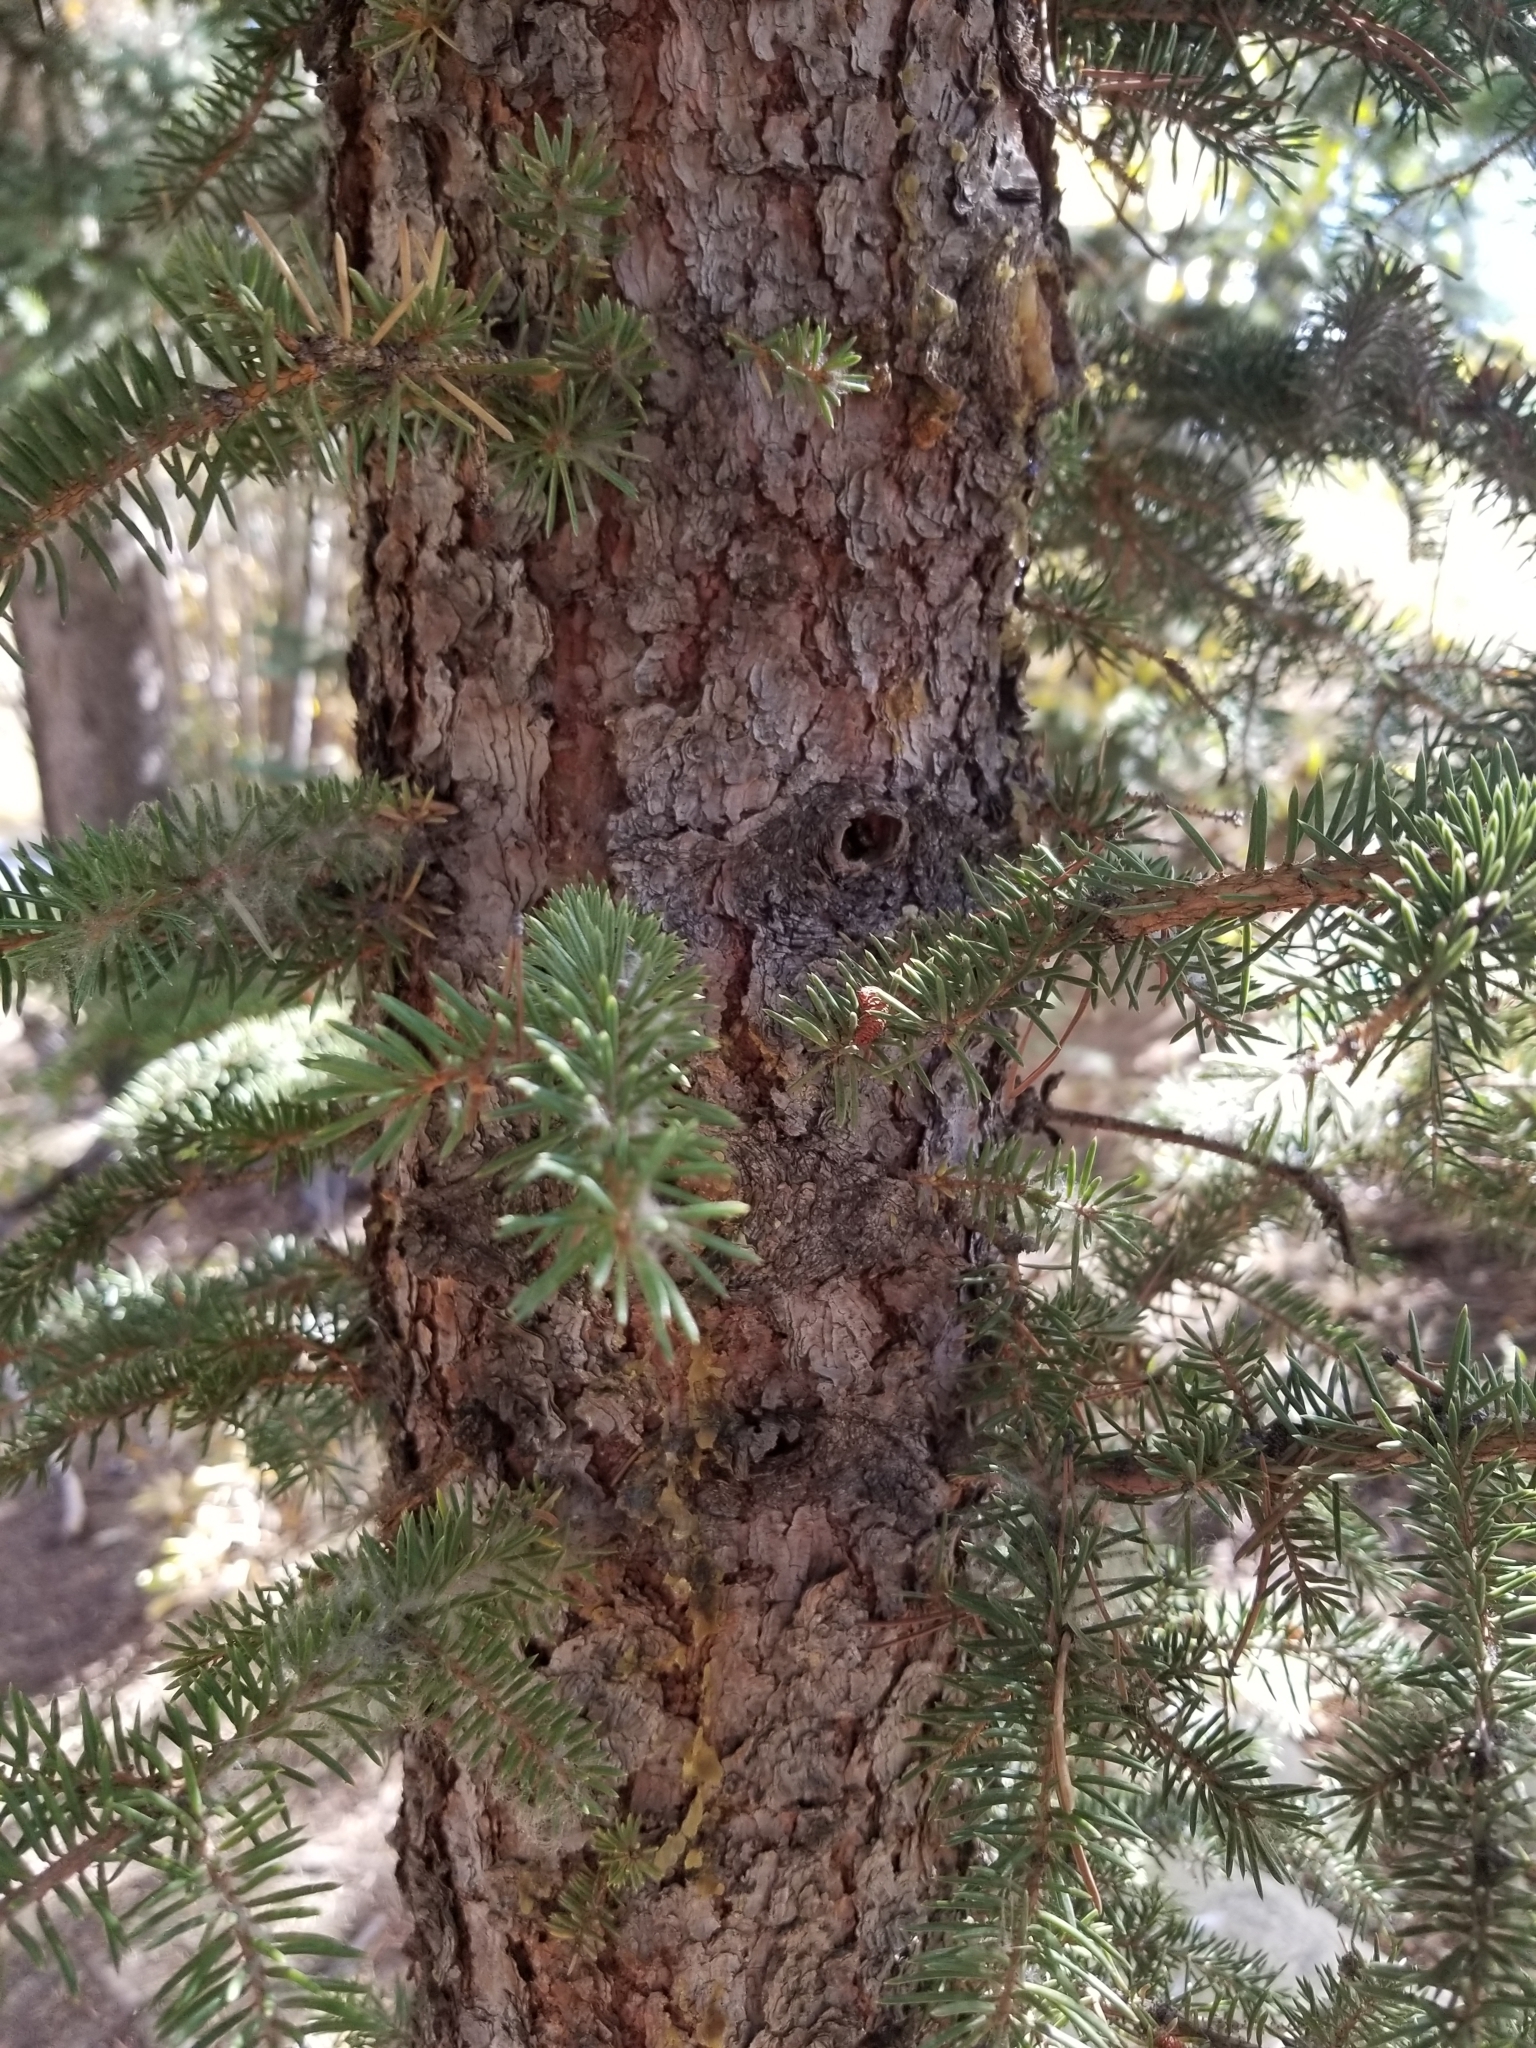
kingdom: Plantae
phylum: Tracheophyta
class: Pinopsida
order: Pinales
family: Pinaceae
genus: Picea
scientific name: Picea engelmannii
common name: Engelmann spruce
